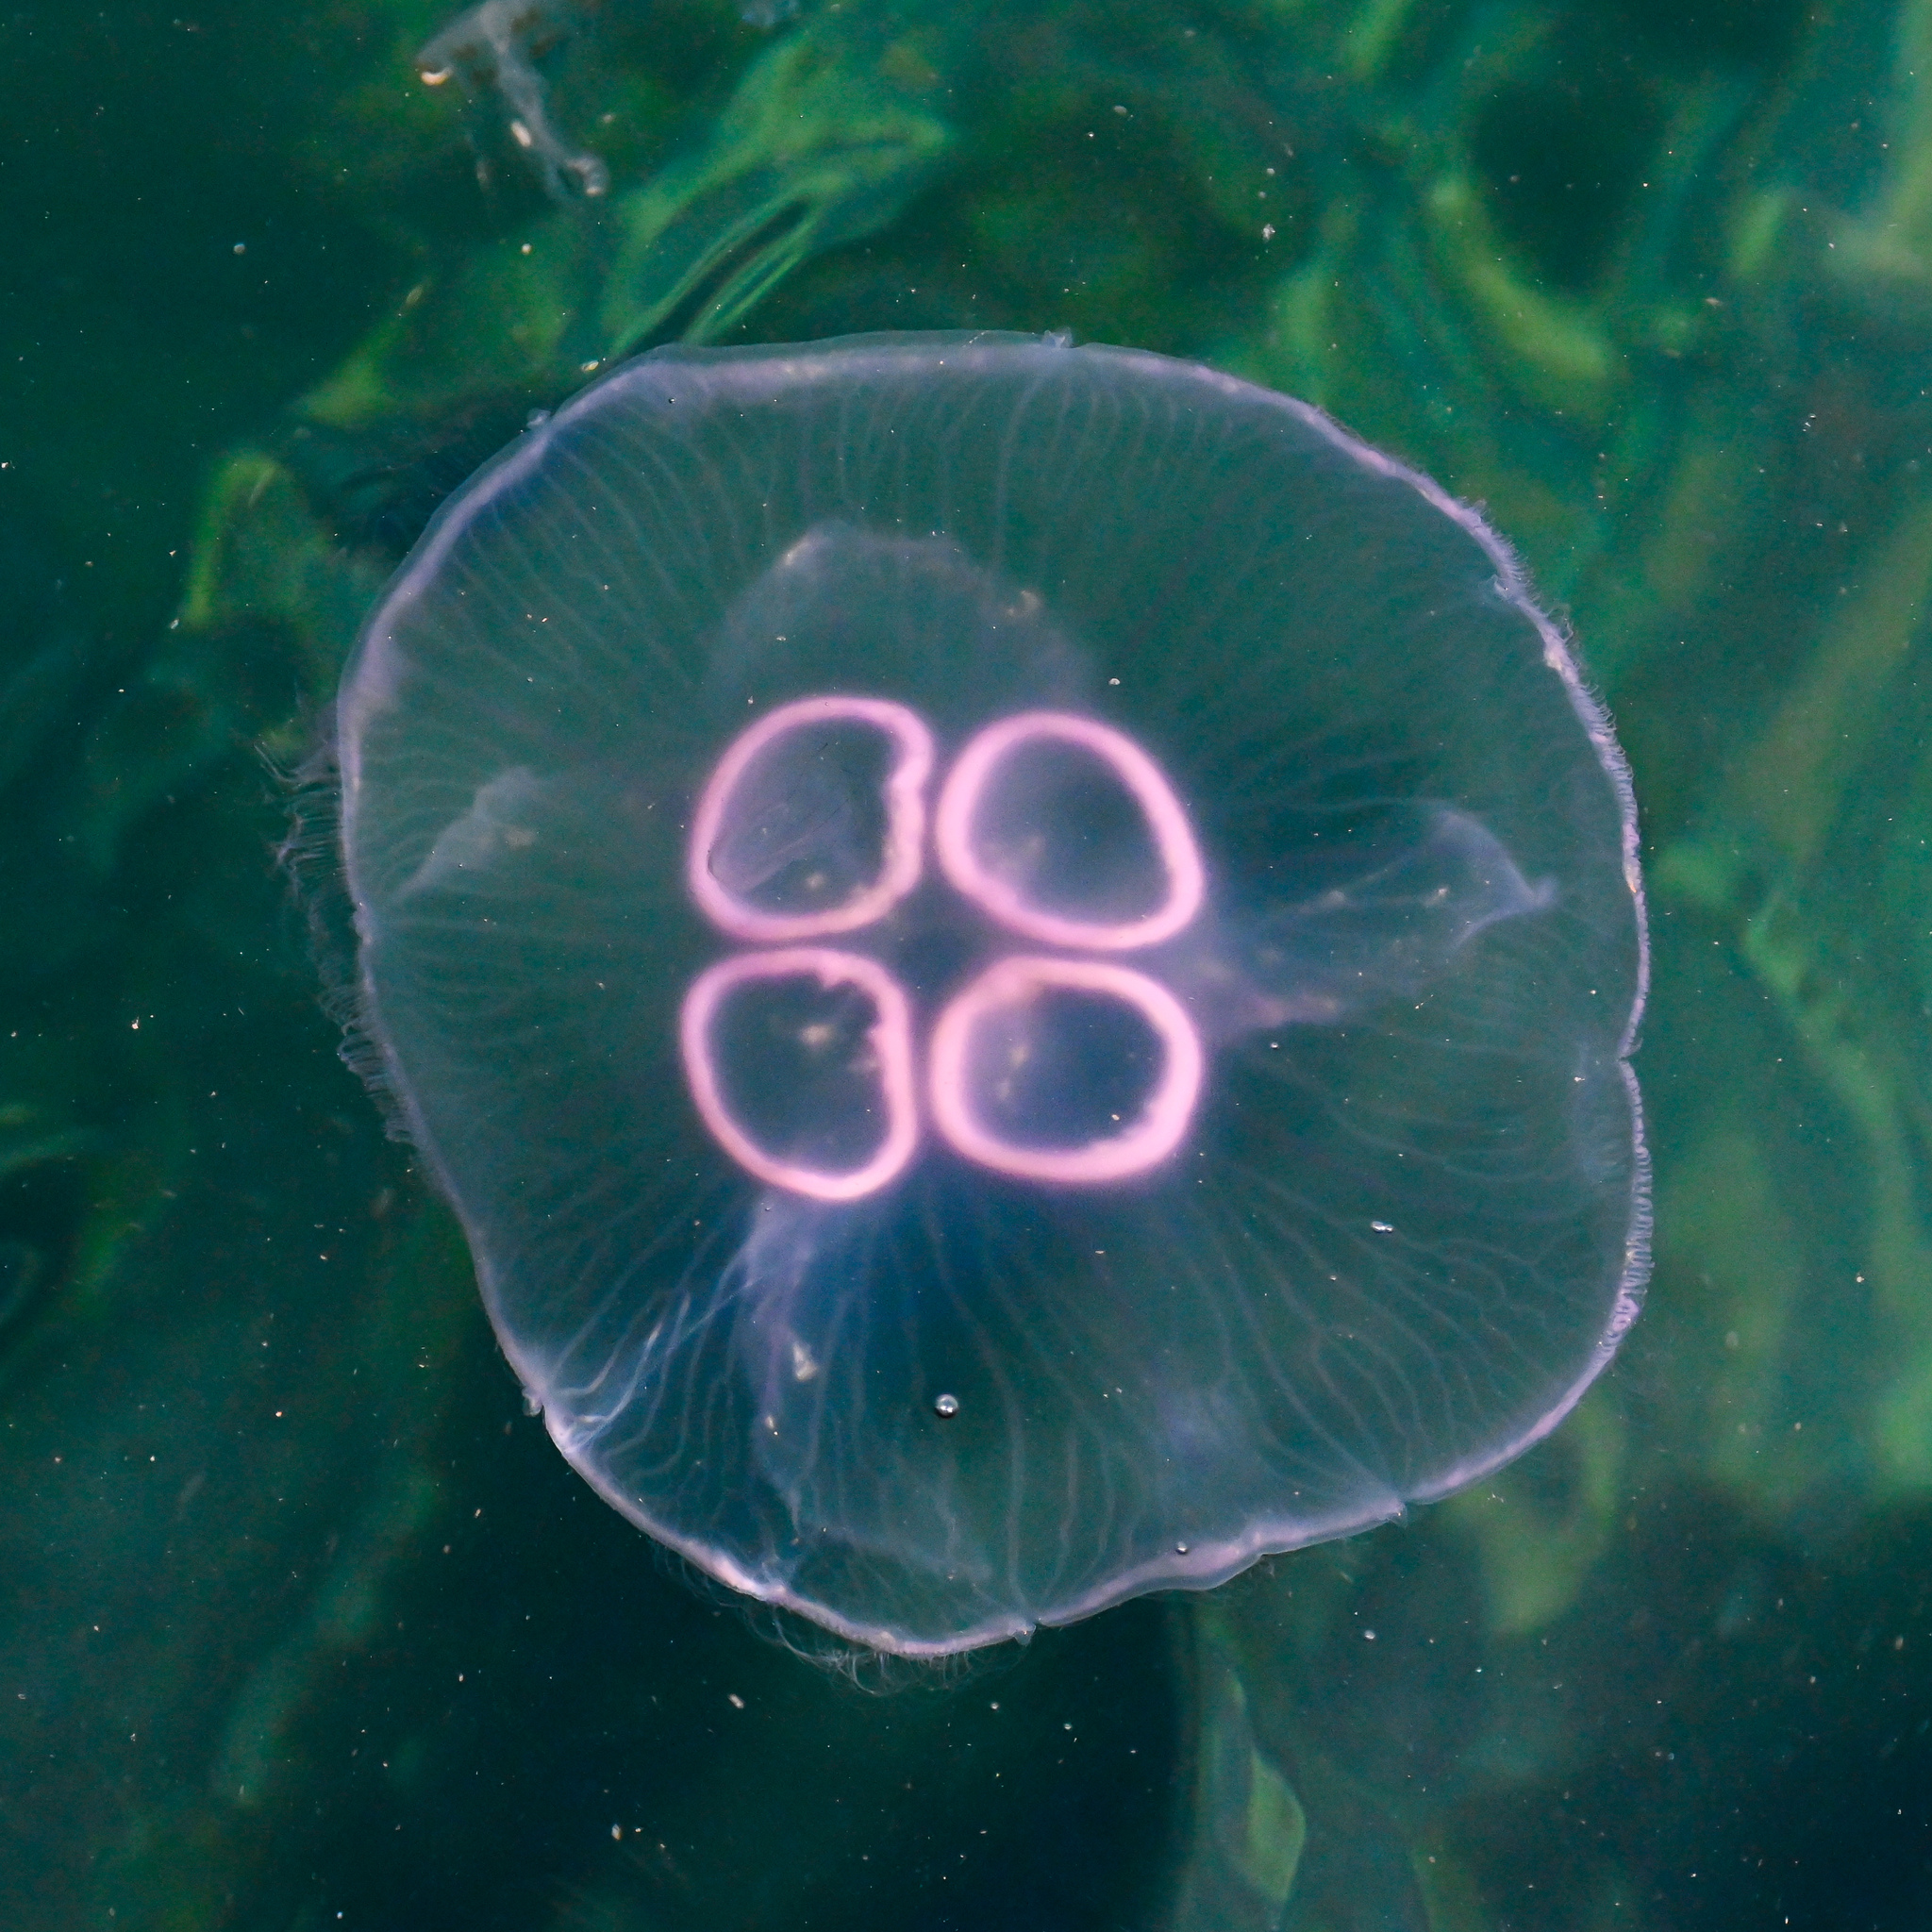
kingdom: Animalia
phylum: Cnidaria
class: Scyphozoa
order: Semaeostomeae
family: Ulmaridae
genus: Aurelia
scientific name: Aurelia aurita
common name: Moon jellyfish
